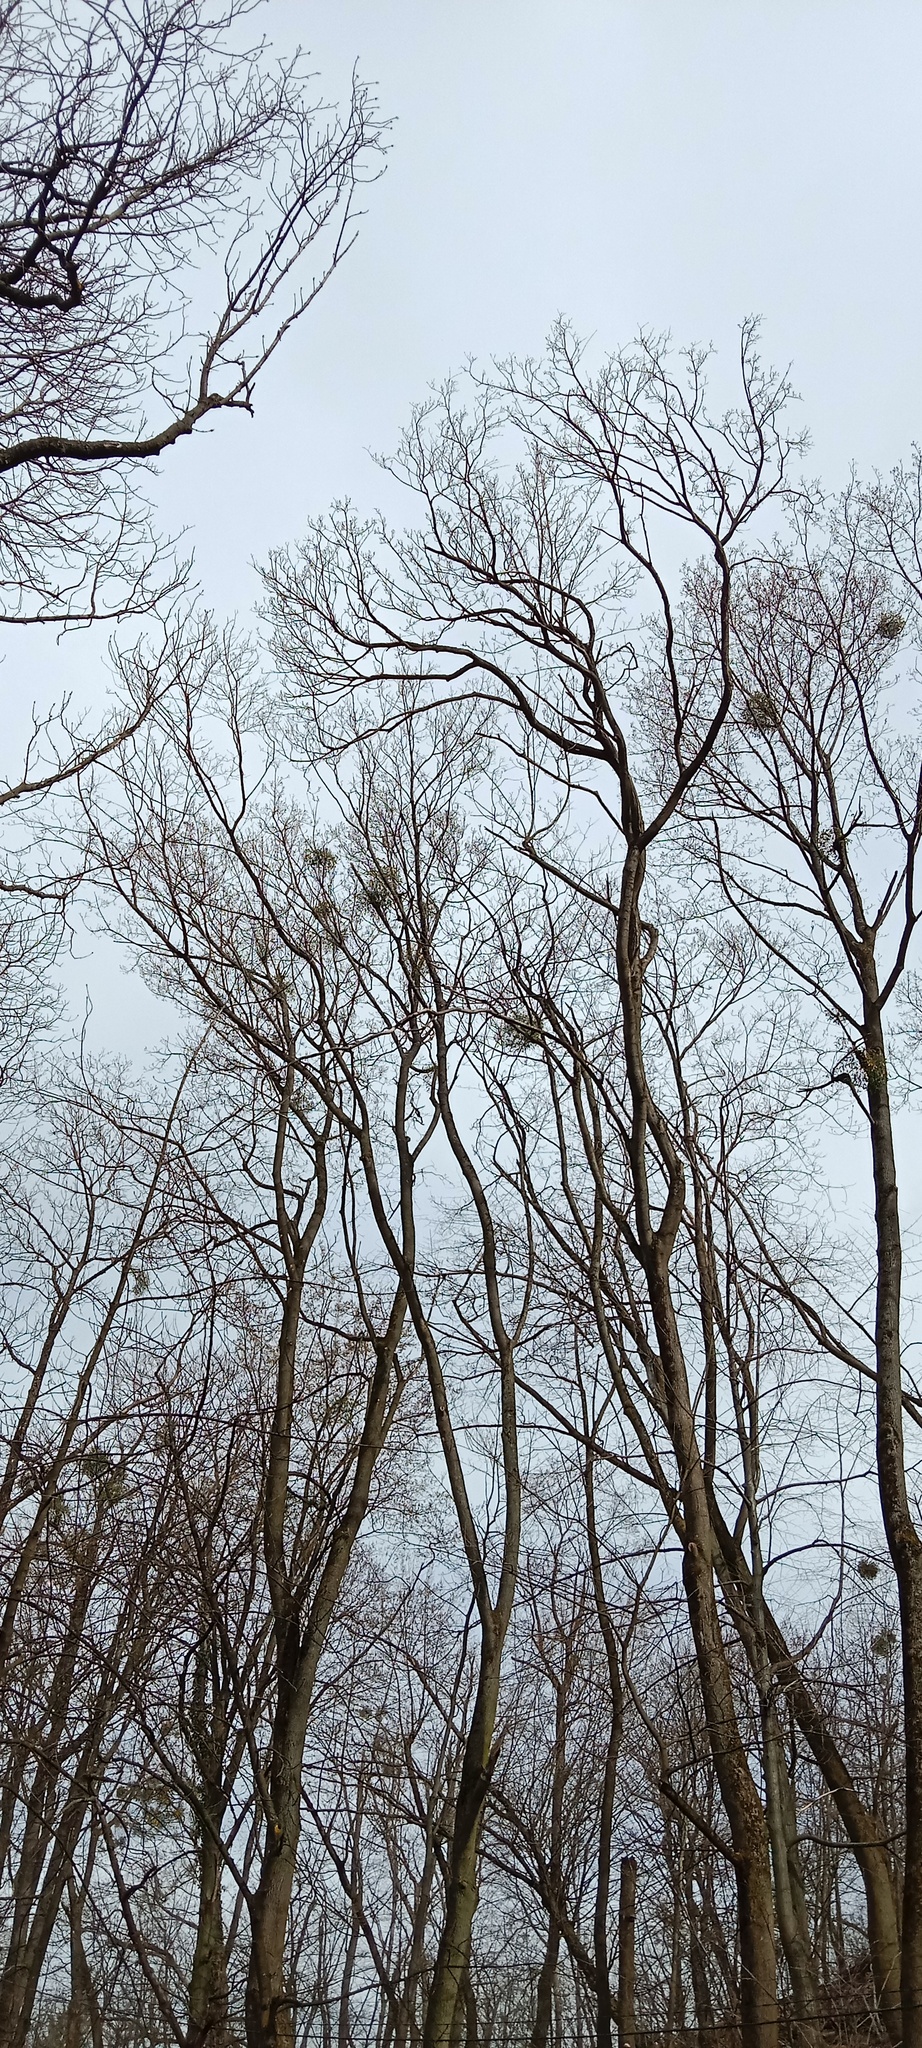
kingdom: Plantae
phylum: Tracheophyta
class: Magnoliopsida
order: Santalales
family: Viscaceae
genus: Viscum
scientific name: Viscum album
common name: Mistletoe
